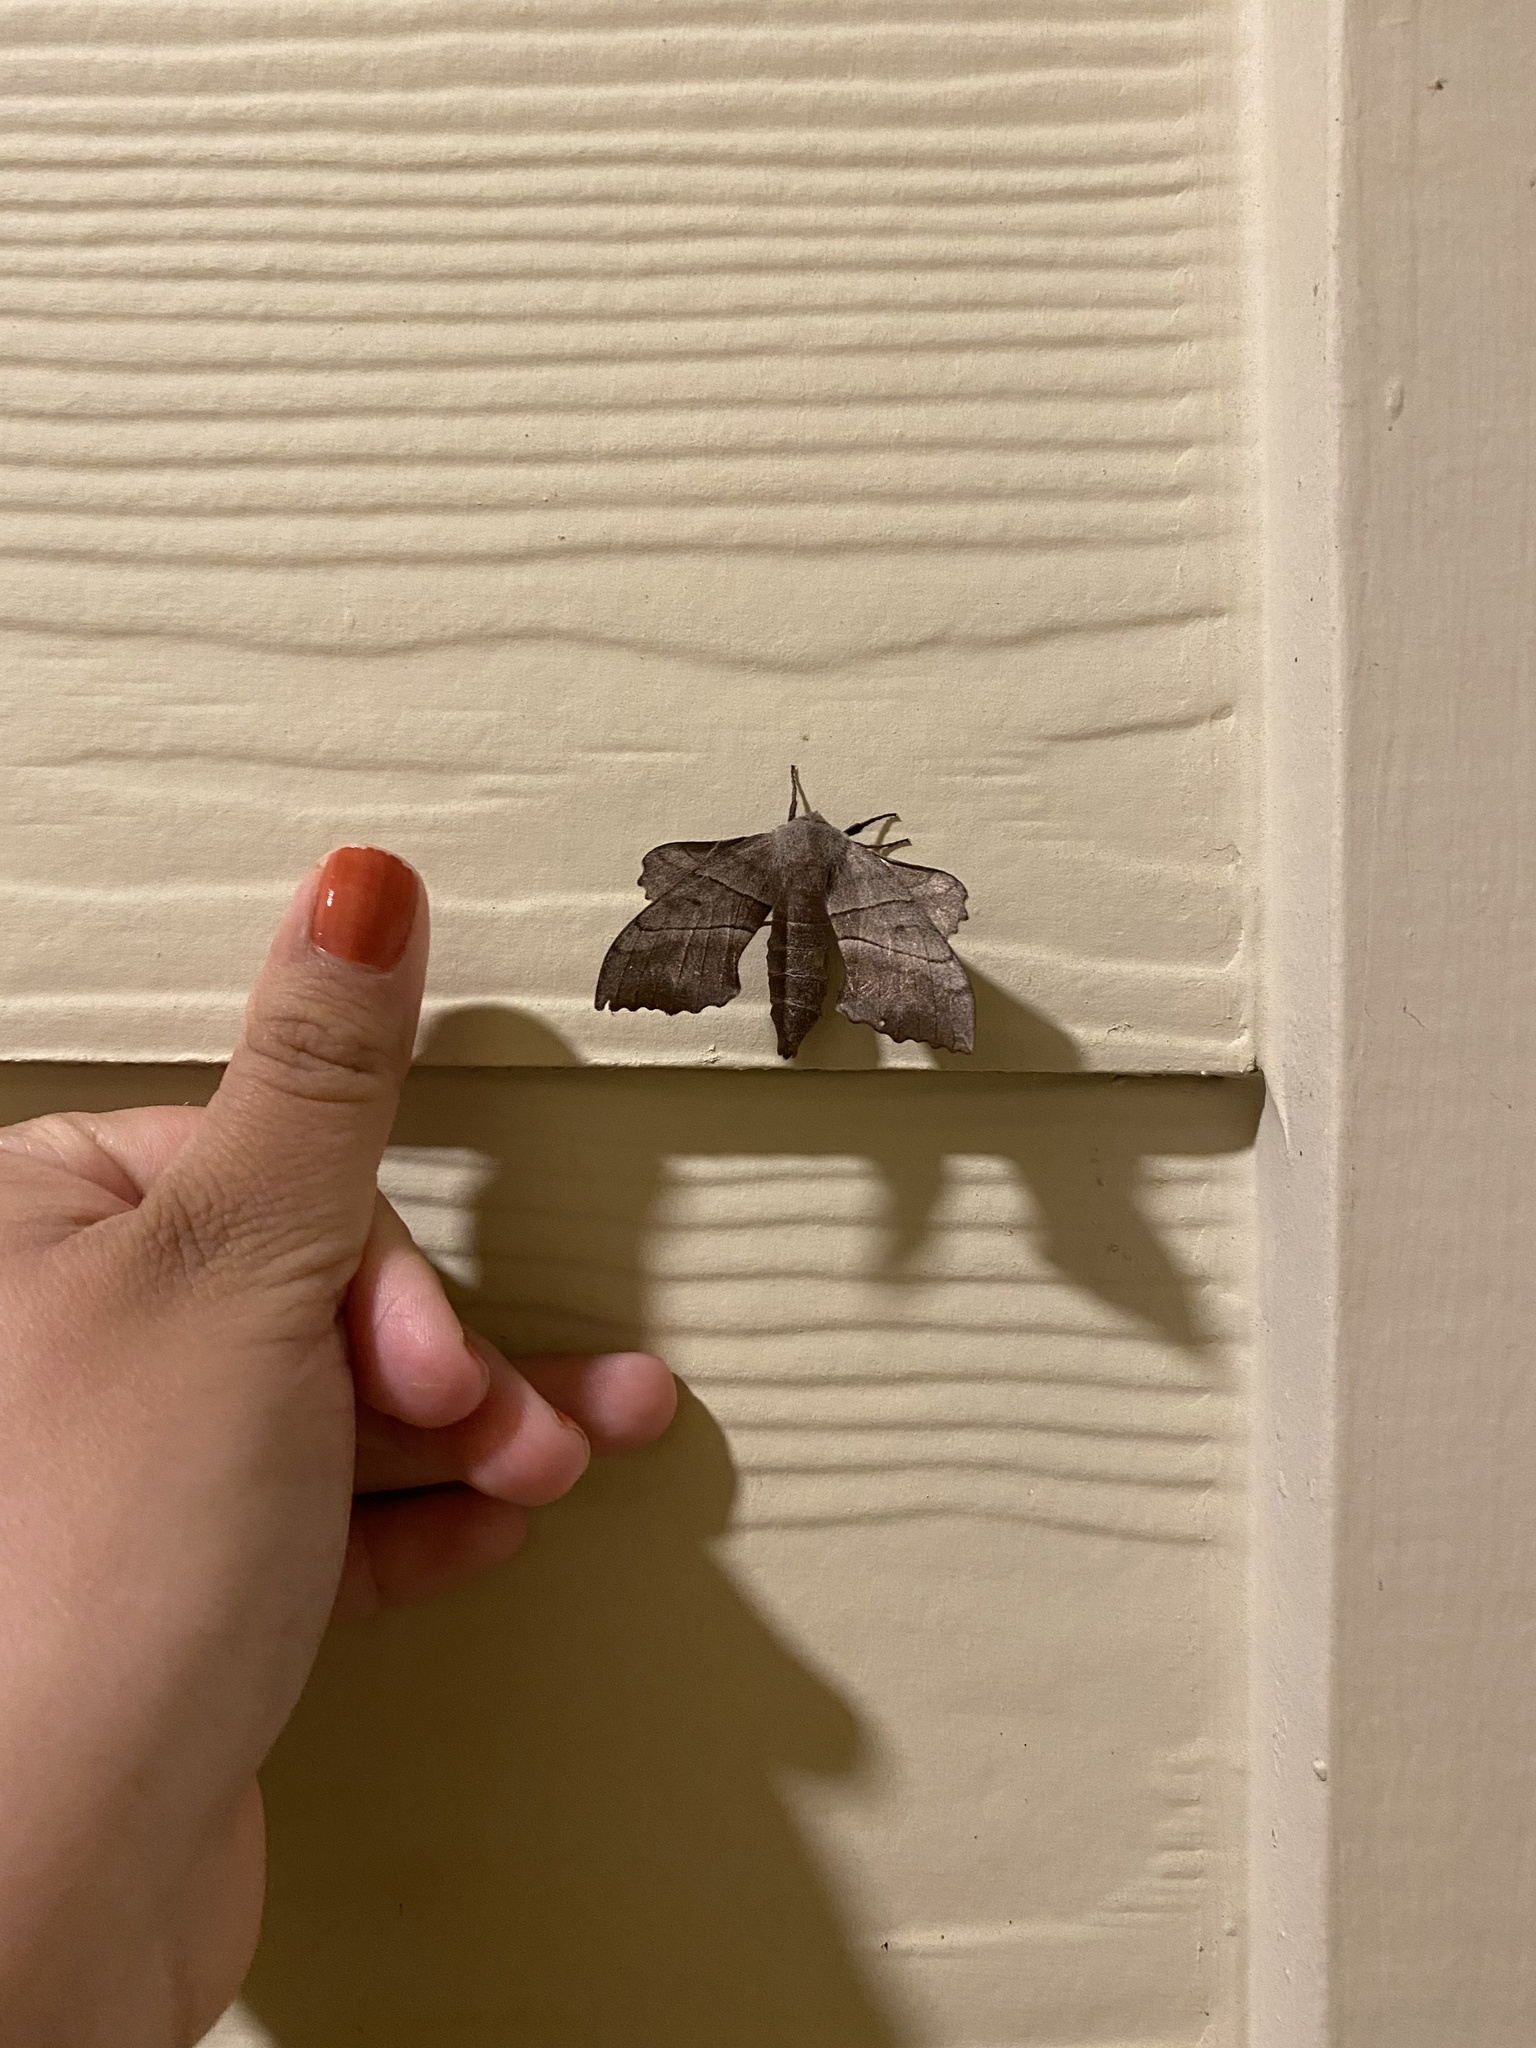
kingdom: Animalia
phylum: Arthropoda
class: Insecta
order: Lepidoptera
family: Sphingidae
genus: Amorpha
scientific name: Amorpha juglandis
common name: Walnut sphinx
